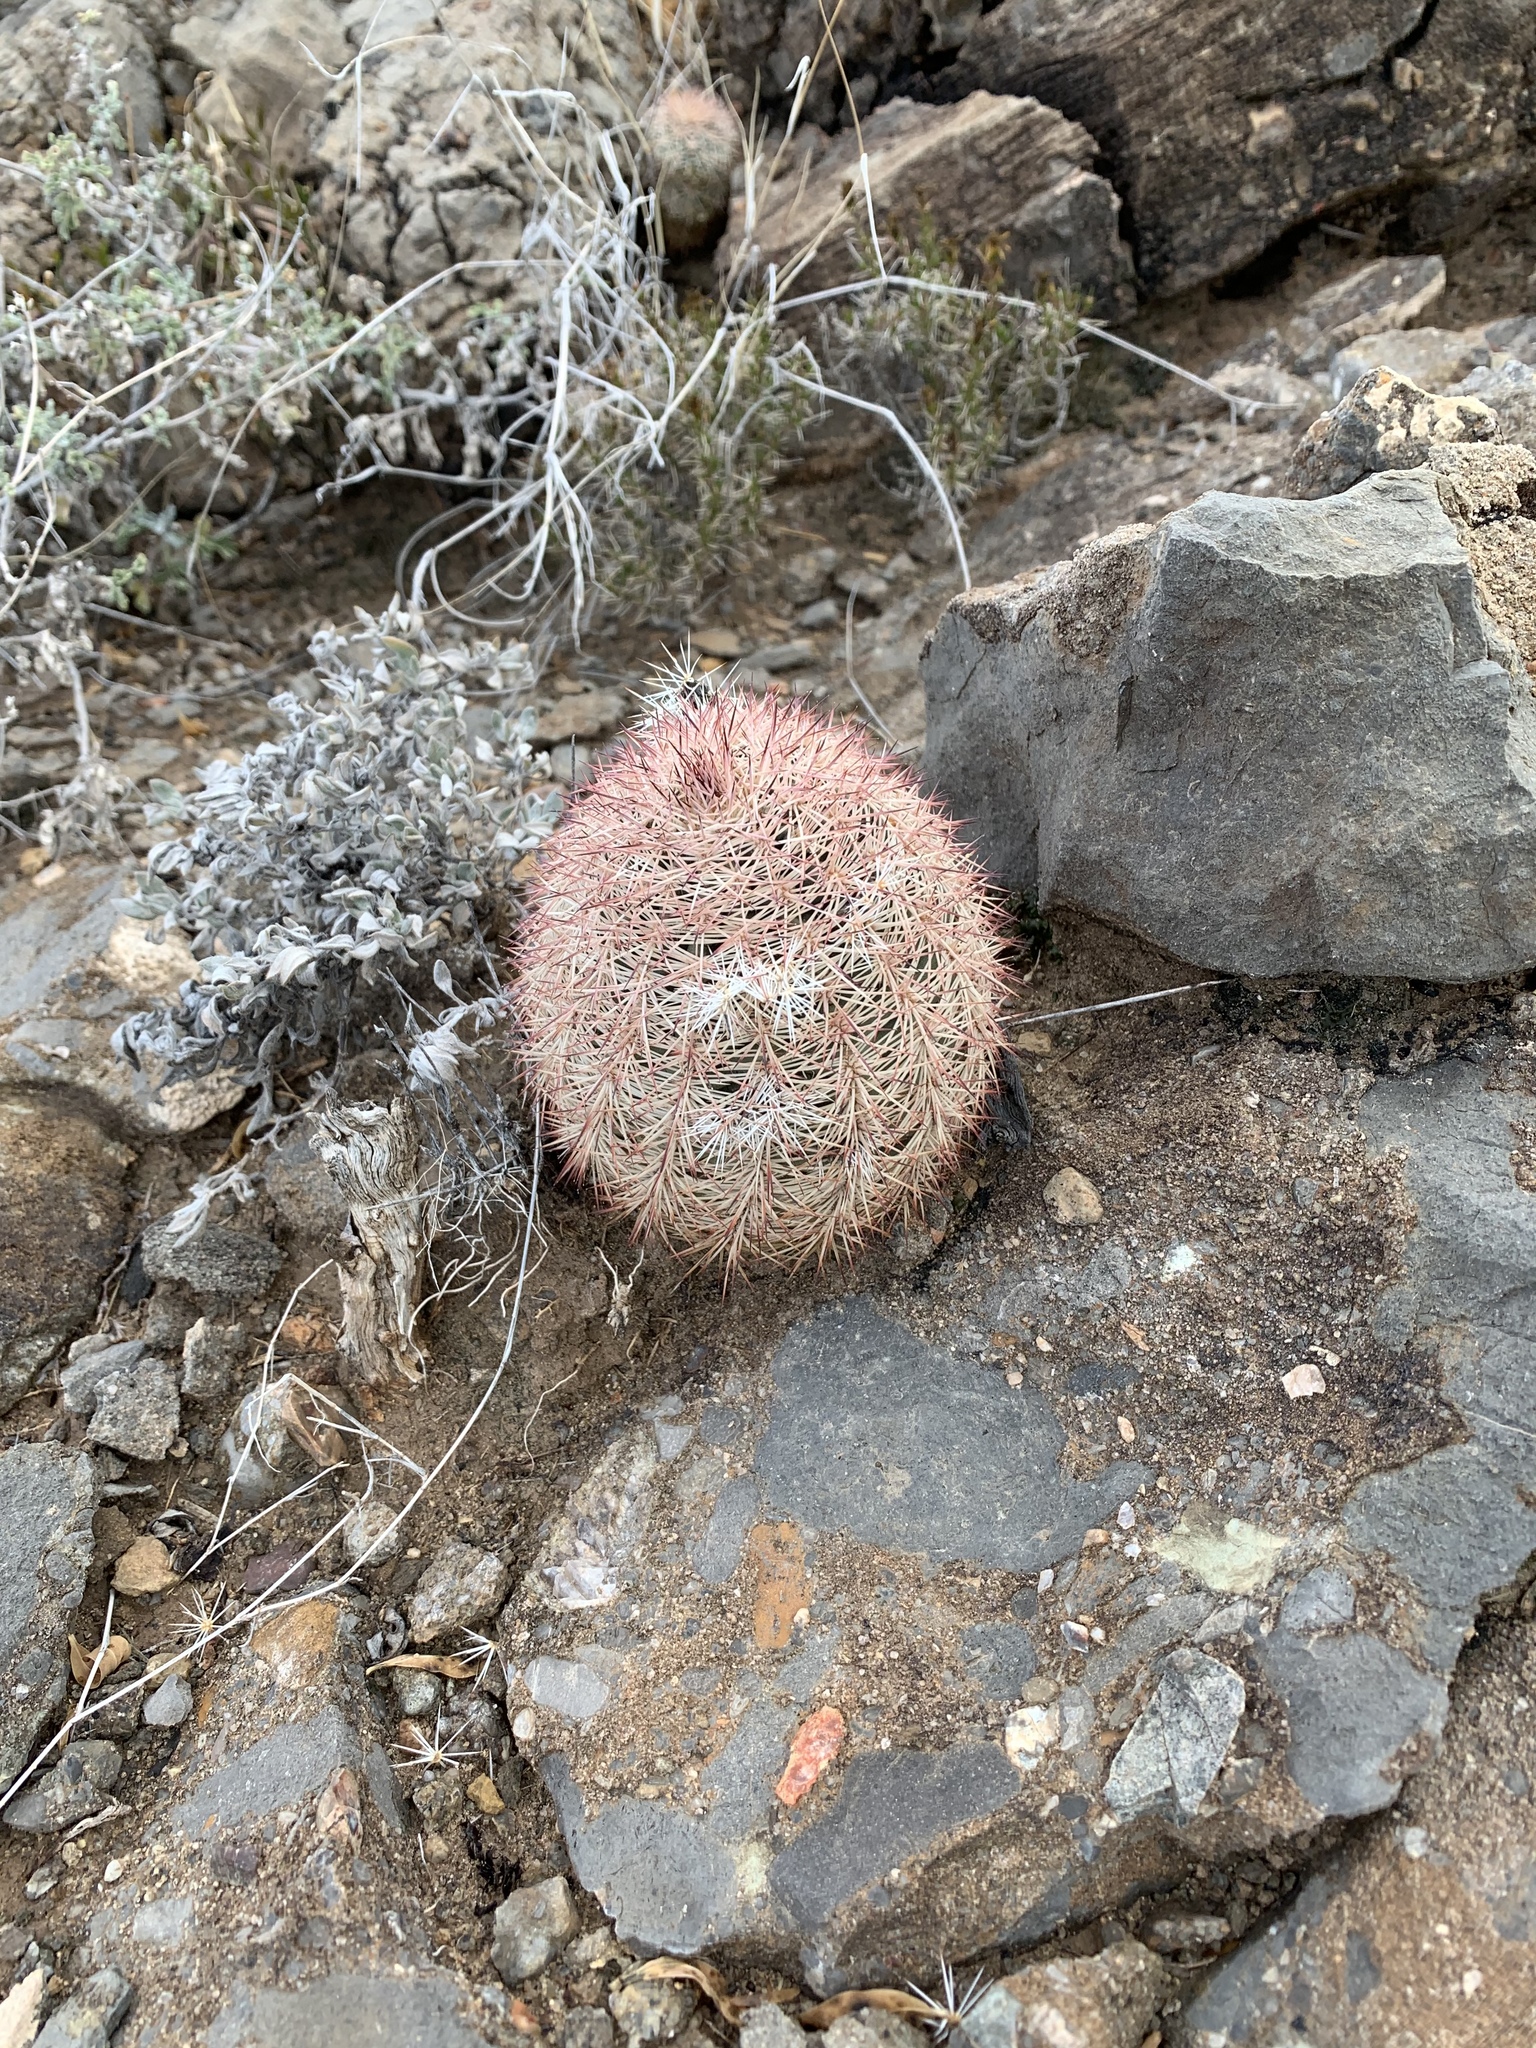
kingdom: Plantae
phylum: Tracheophyta
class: Magnoliopsida
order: Caryophyllales
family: Cactaceae
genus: Echinocereus
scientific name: Echinocereus dasyacanthus
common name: Spiny hedgehog cactus
